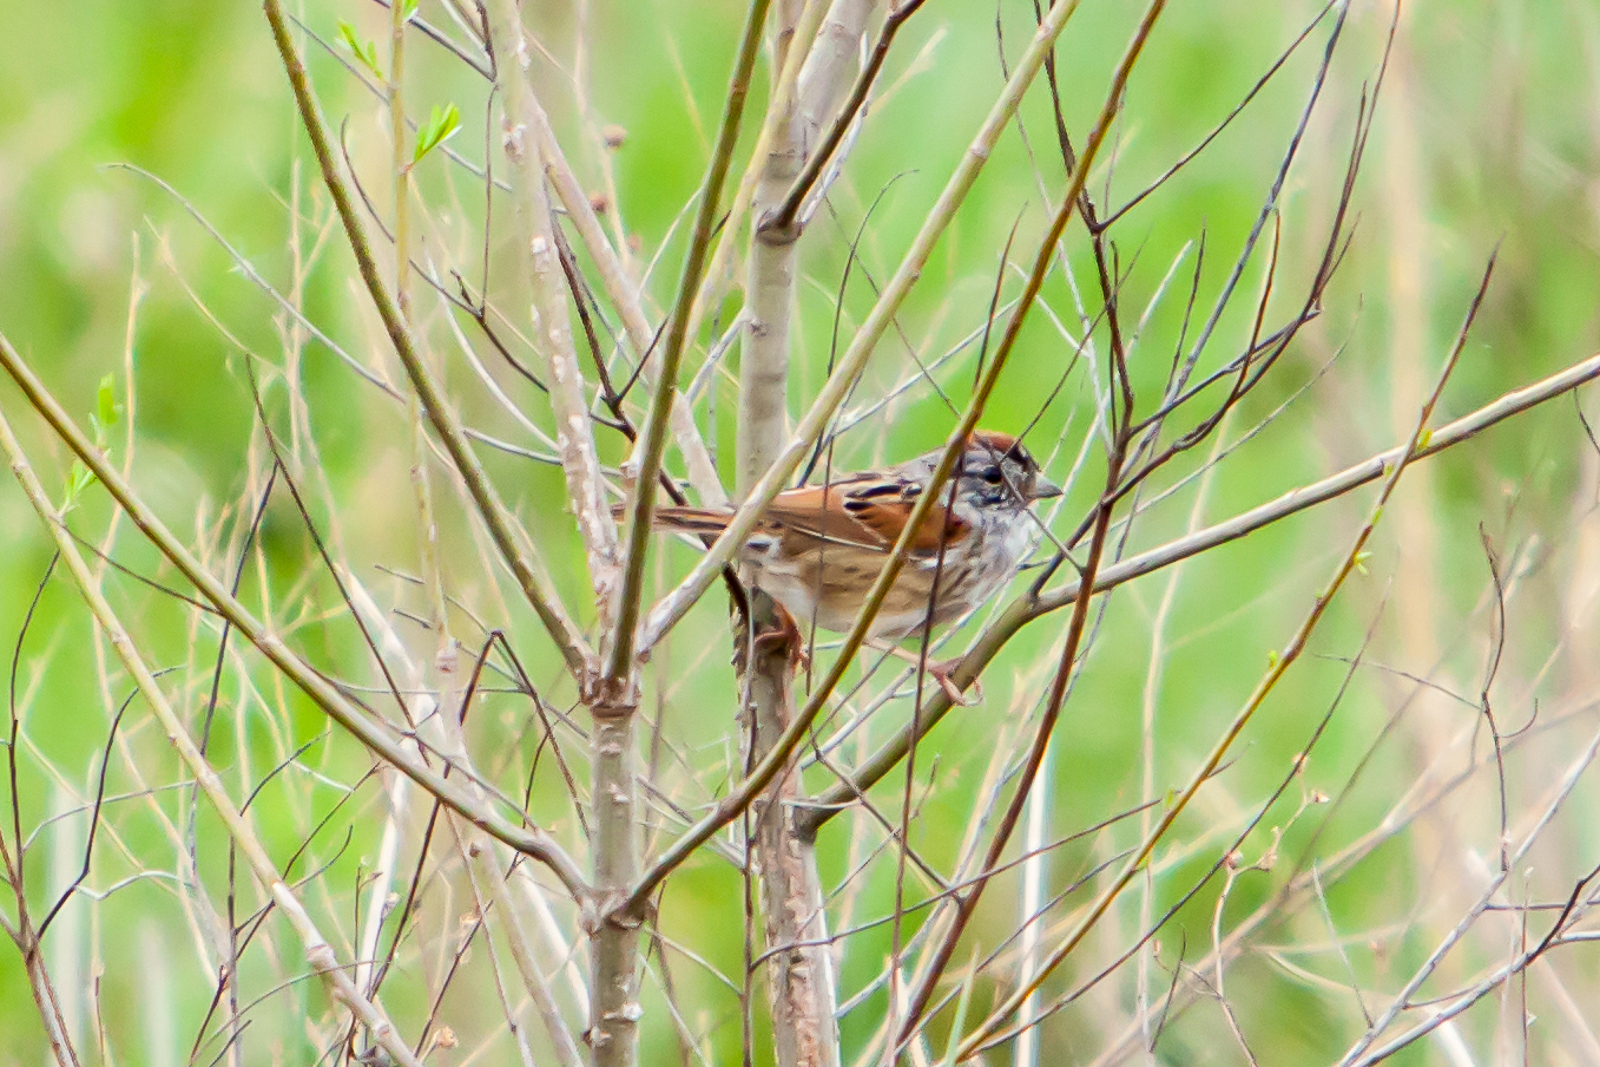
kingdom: Animalia
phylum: Chordata
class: Aves
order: Passeriformes
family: Passerellidae
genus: Melospiza
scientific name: Melospiza georgiana
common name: Swamp sparrow
